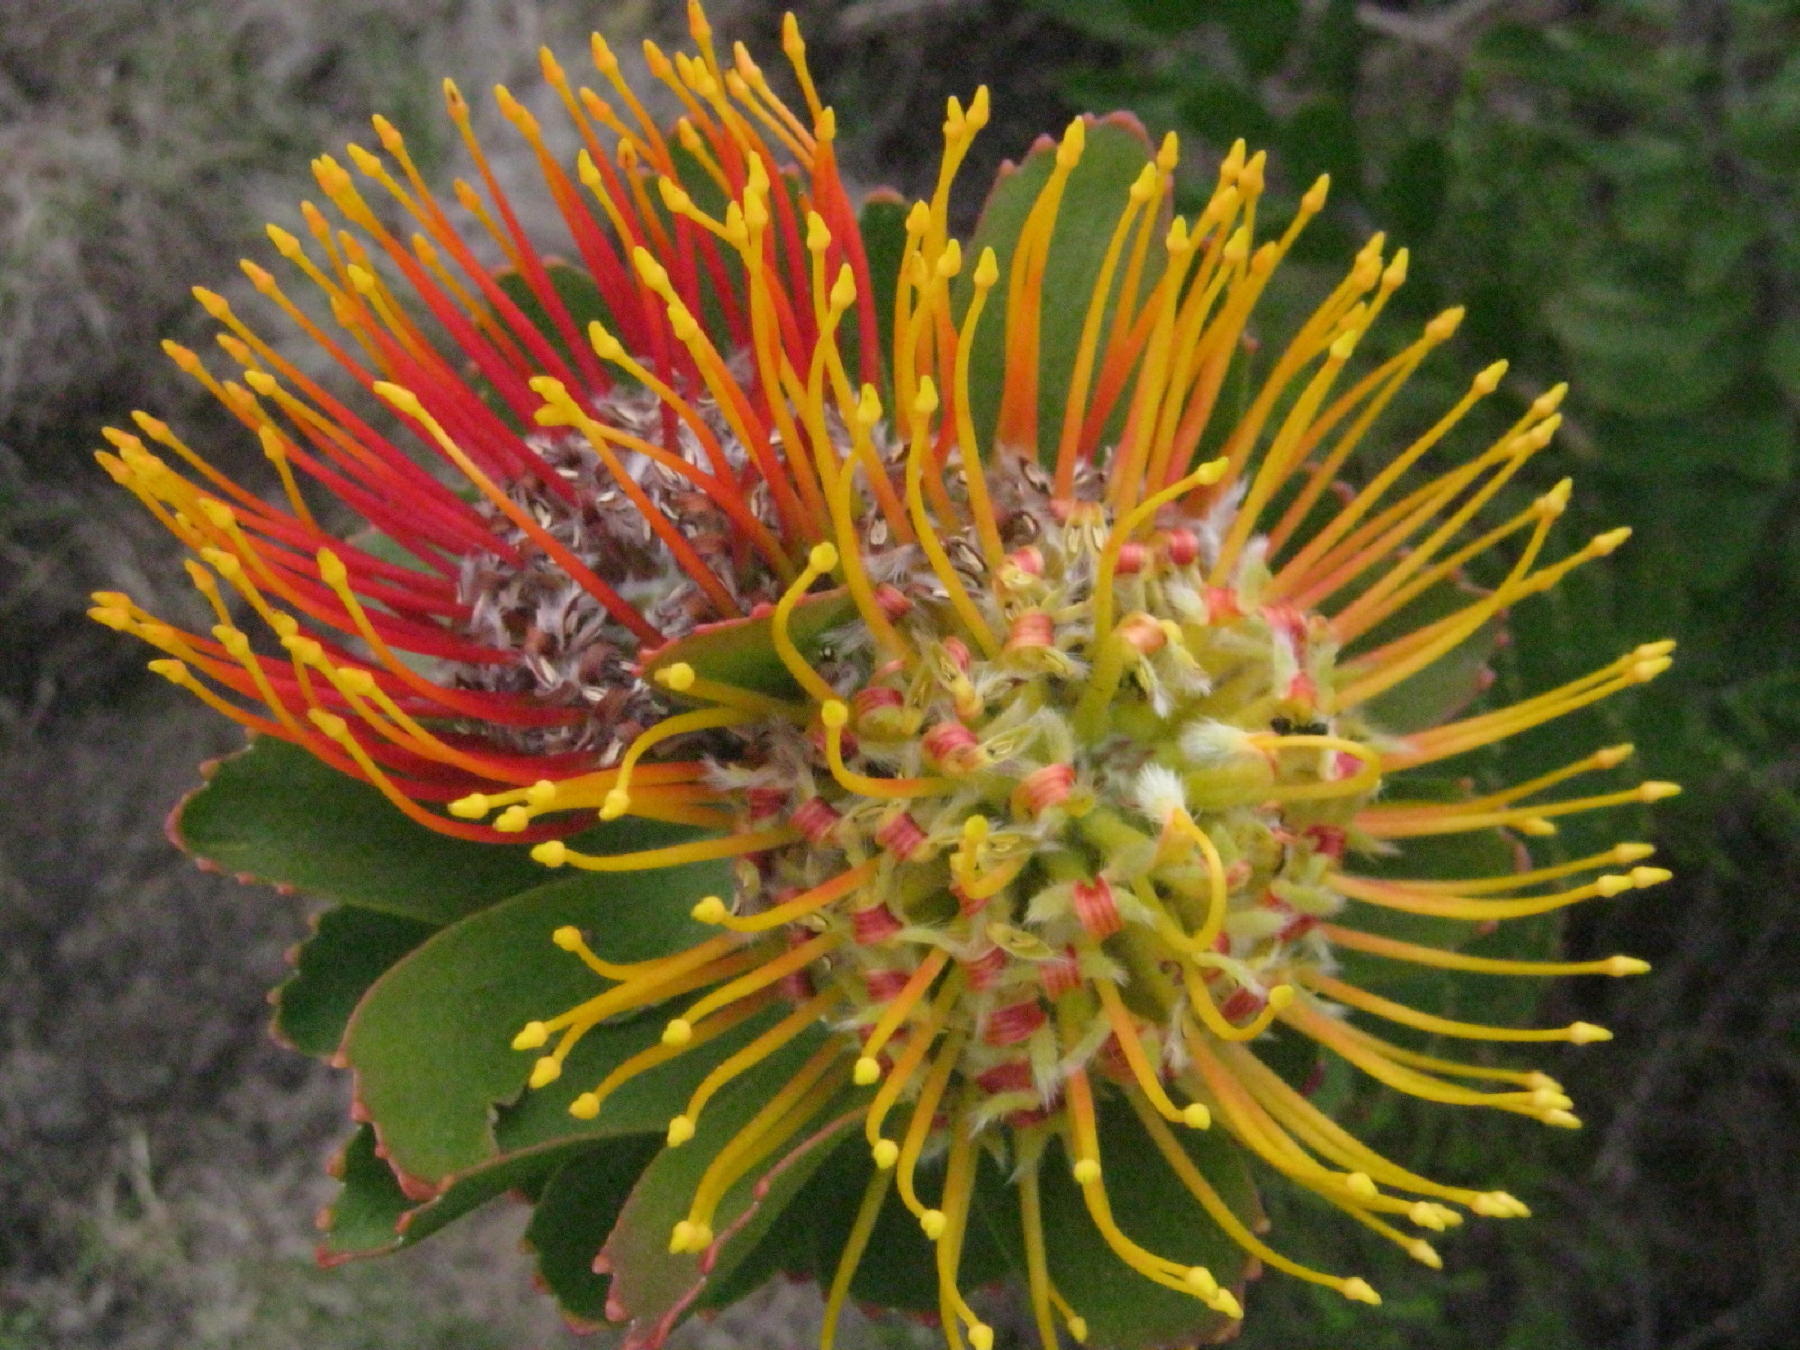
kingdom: Plantae
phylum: Tracheophyta
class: Magnoliopsida
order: Proteales
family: Proteaceae
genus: Leucospermum
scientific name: Leucospermum praecox
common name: Mossel bay pincushion
